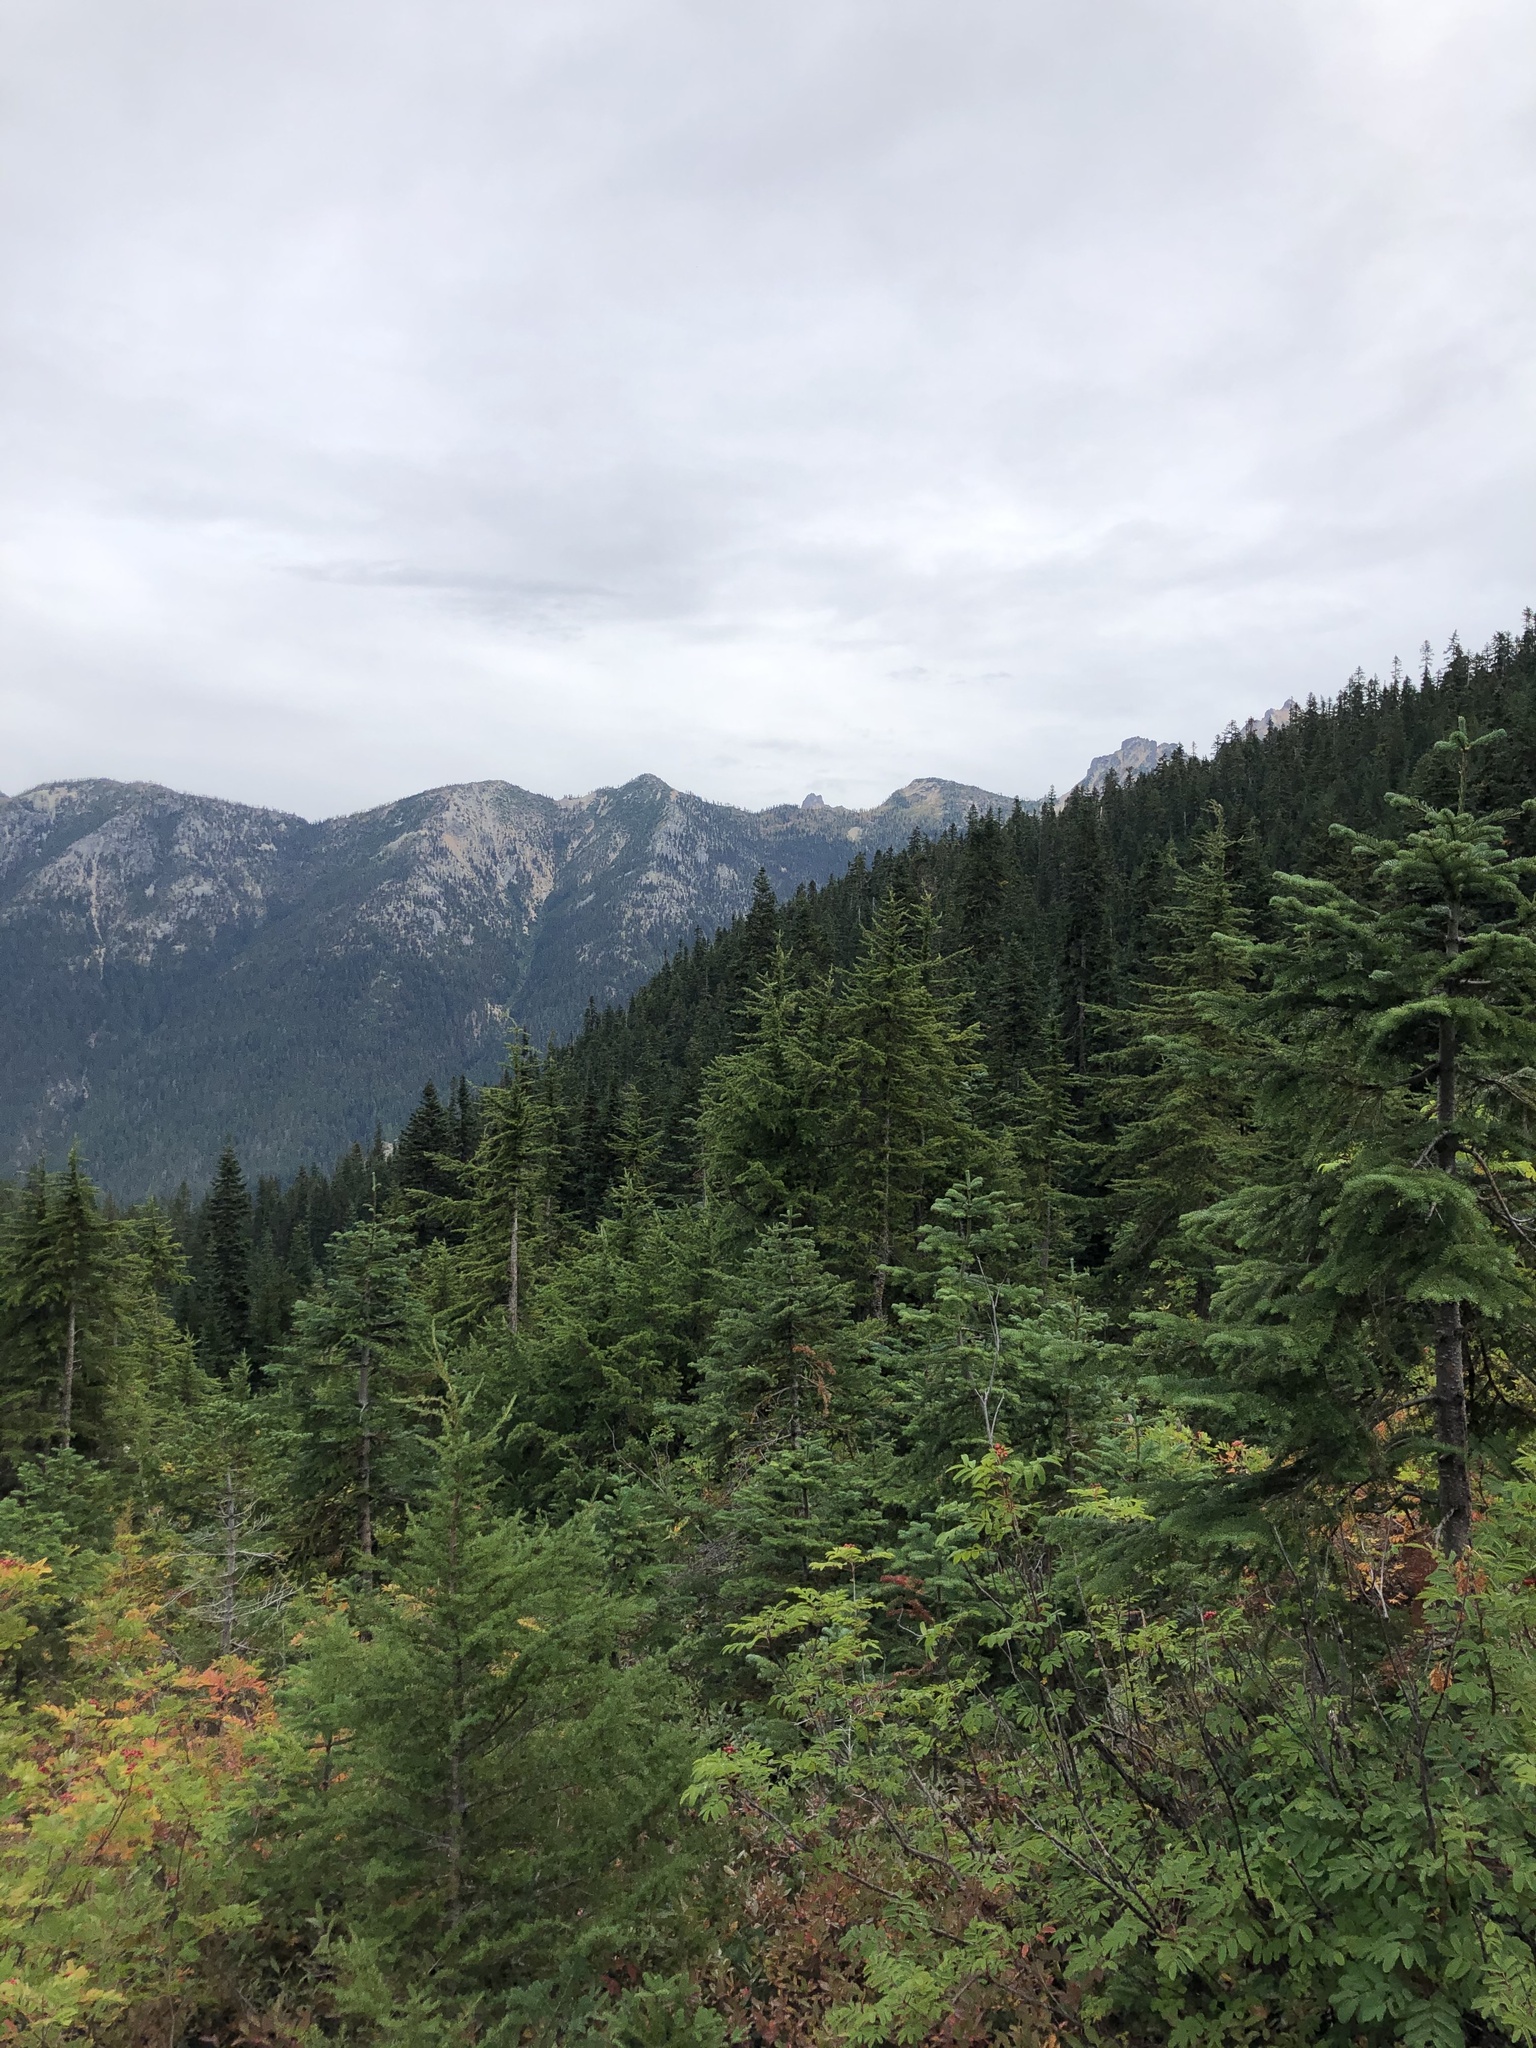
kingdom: Plantae
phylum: Tracheophyta
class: Pinopsida
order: Pinales
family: Pinaceae
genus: Tsuga
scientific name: Tsuga mertensiana
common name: Mountain hemlock
